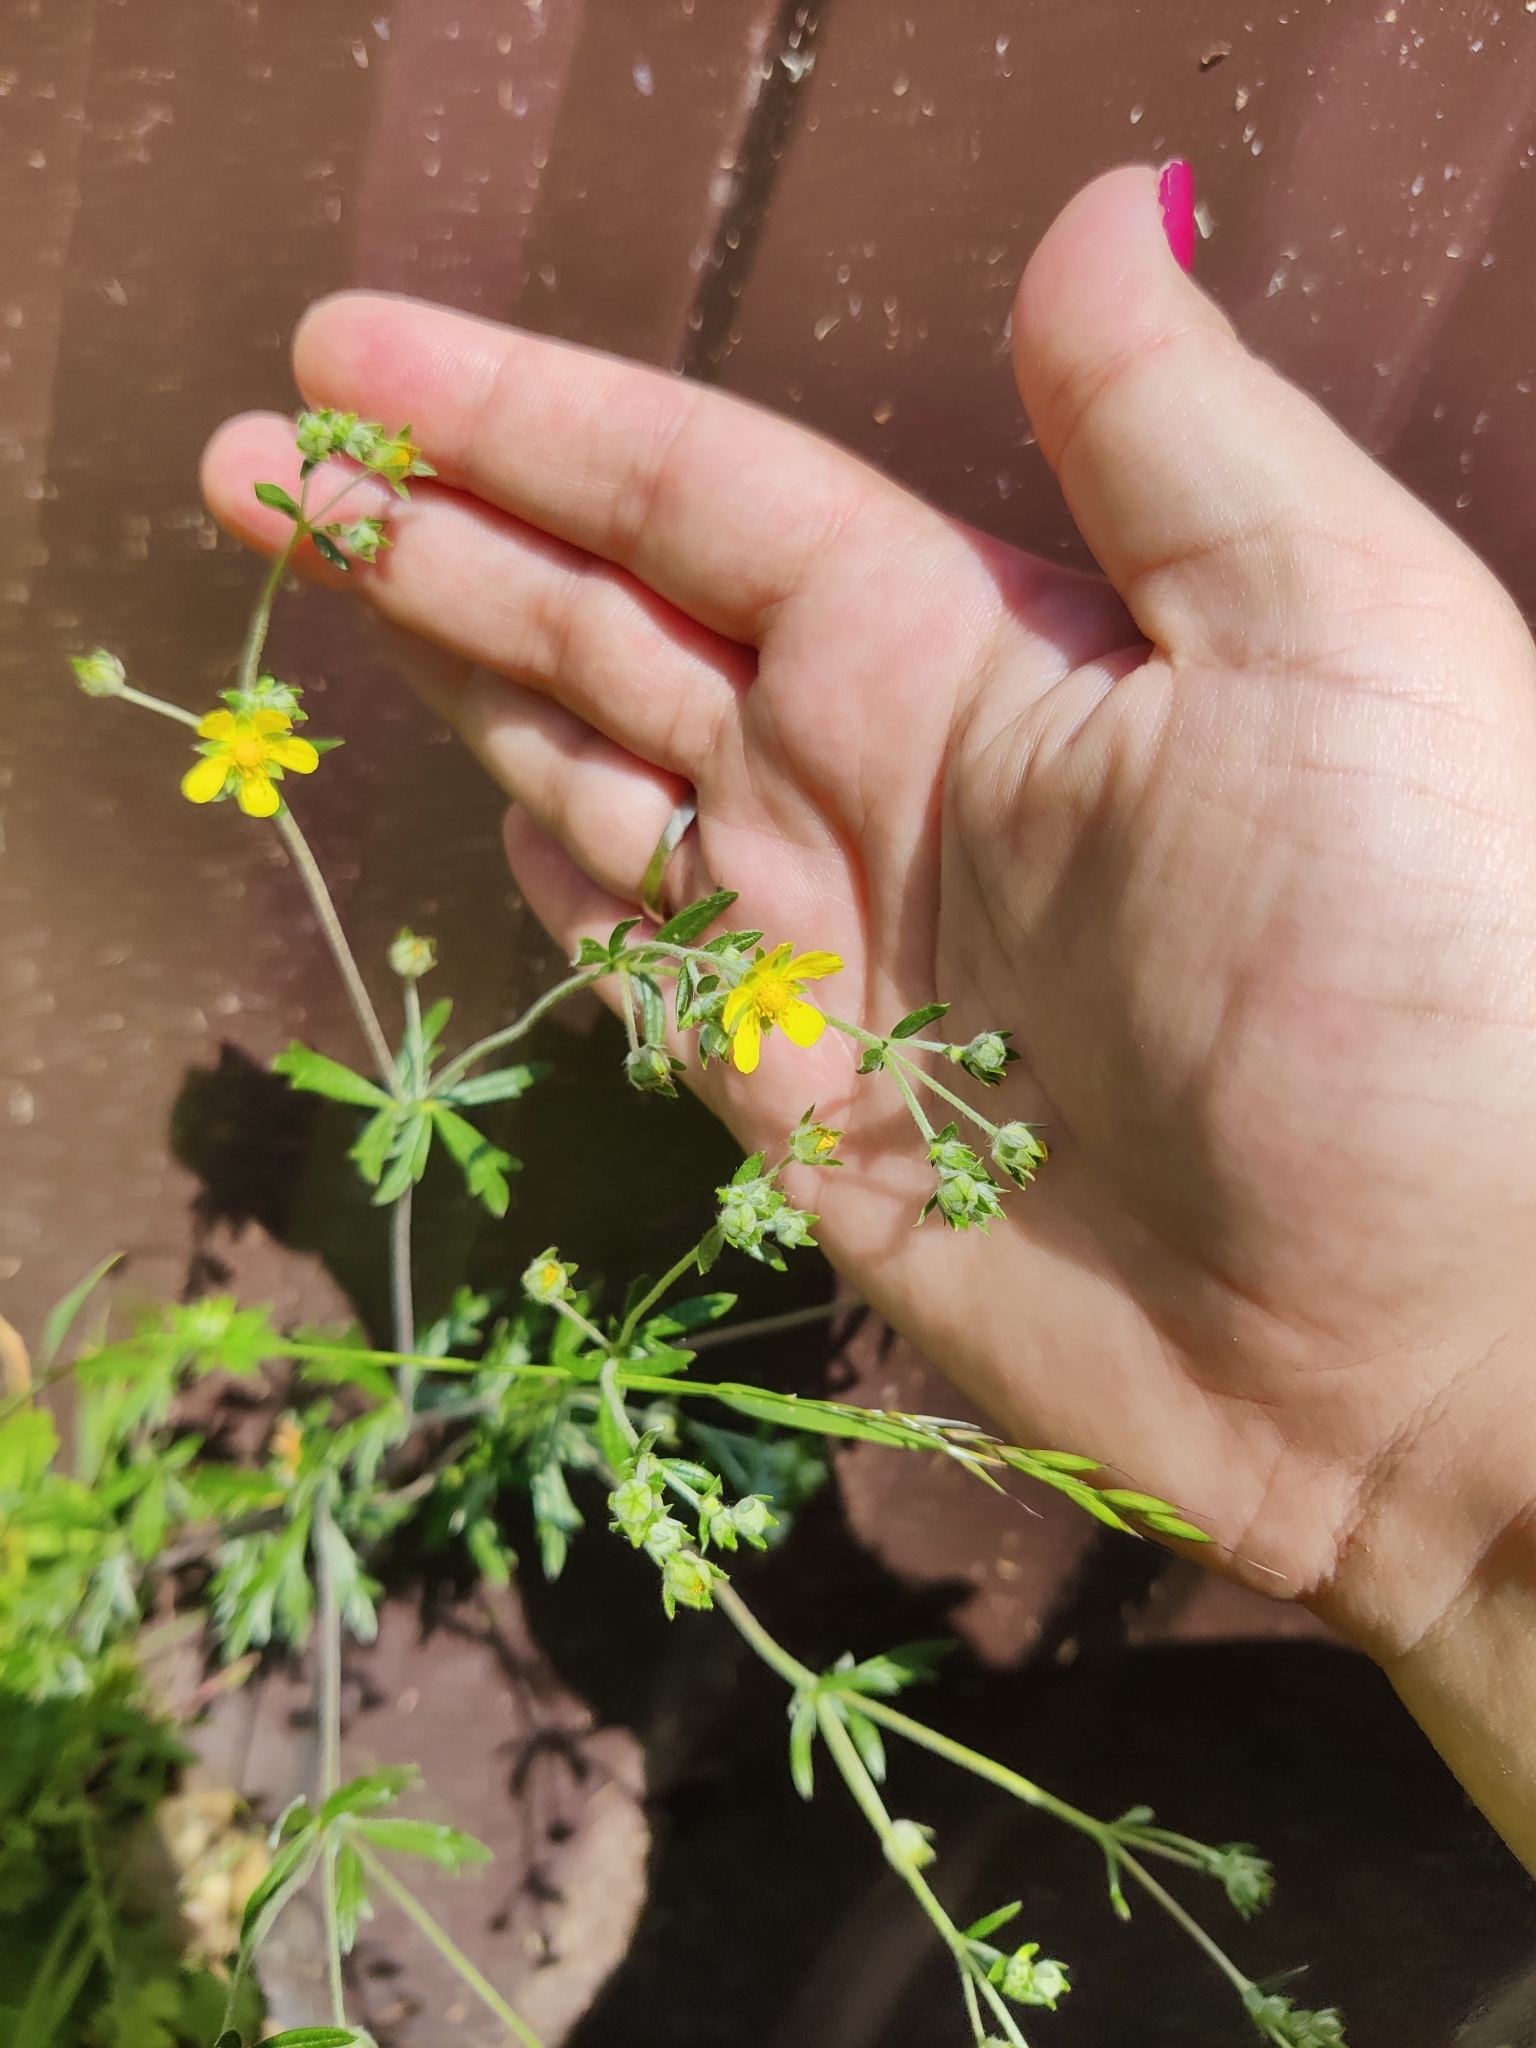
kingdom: Plantae
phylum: Tracheophyta
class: Magnoliopsida
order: Rosales
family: Rosaceae
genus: Potentilla
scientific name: Potentilla argentea
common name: Hoary cinquefoil
